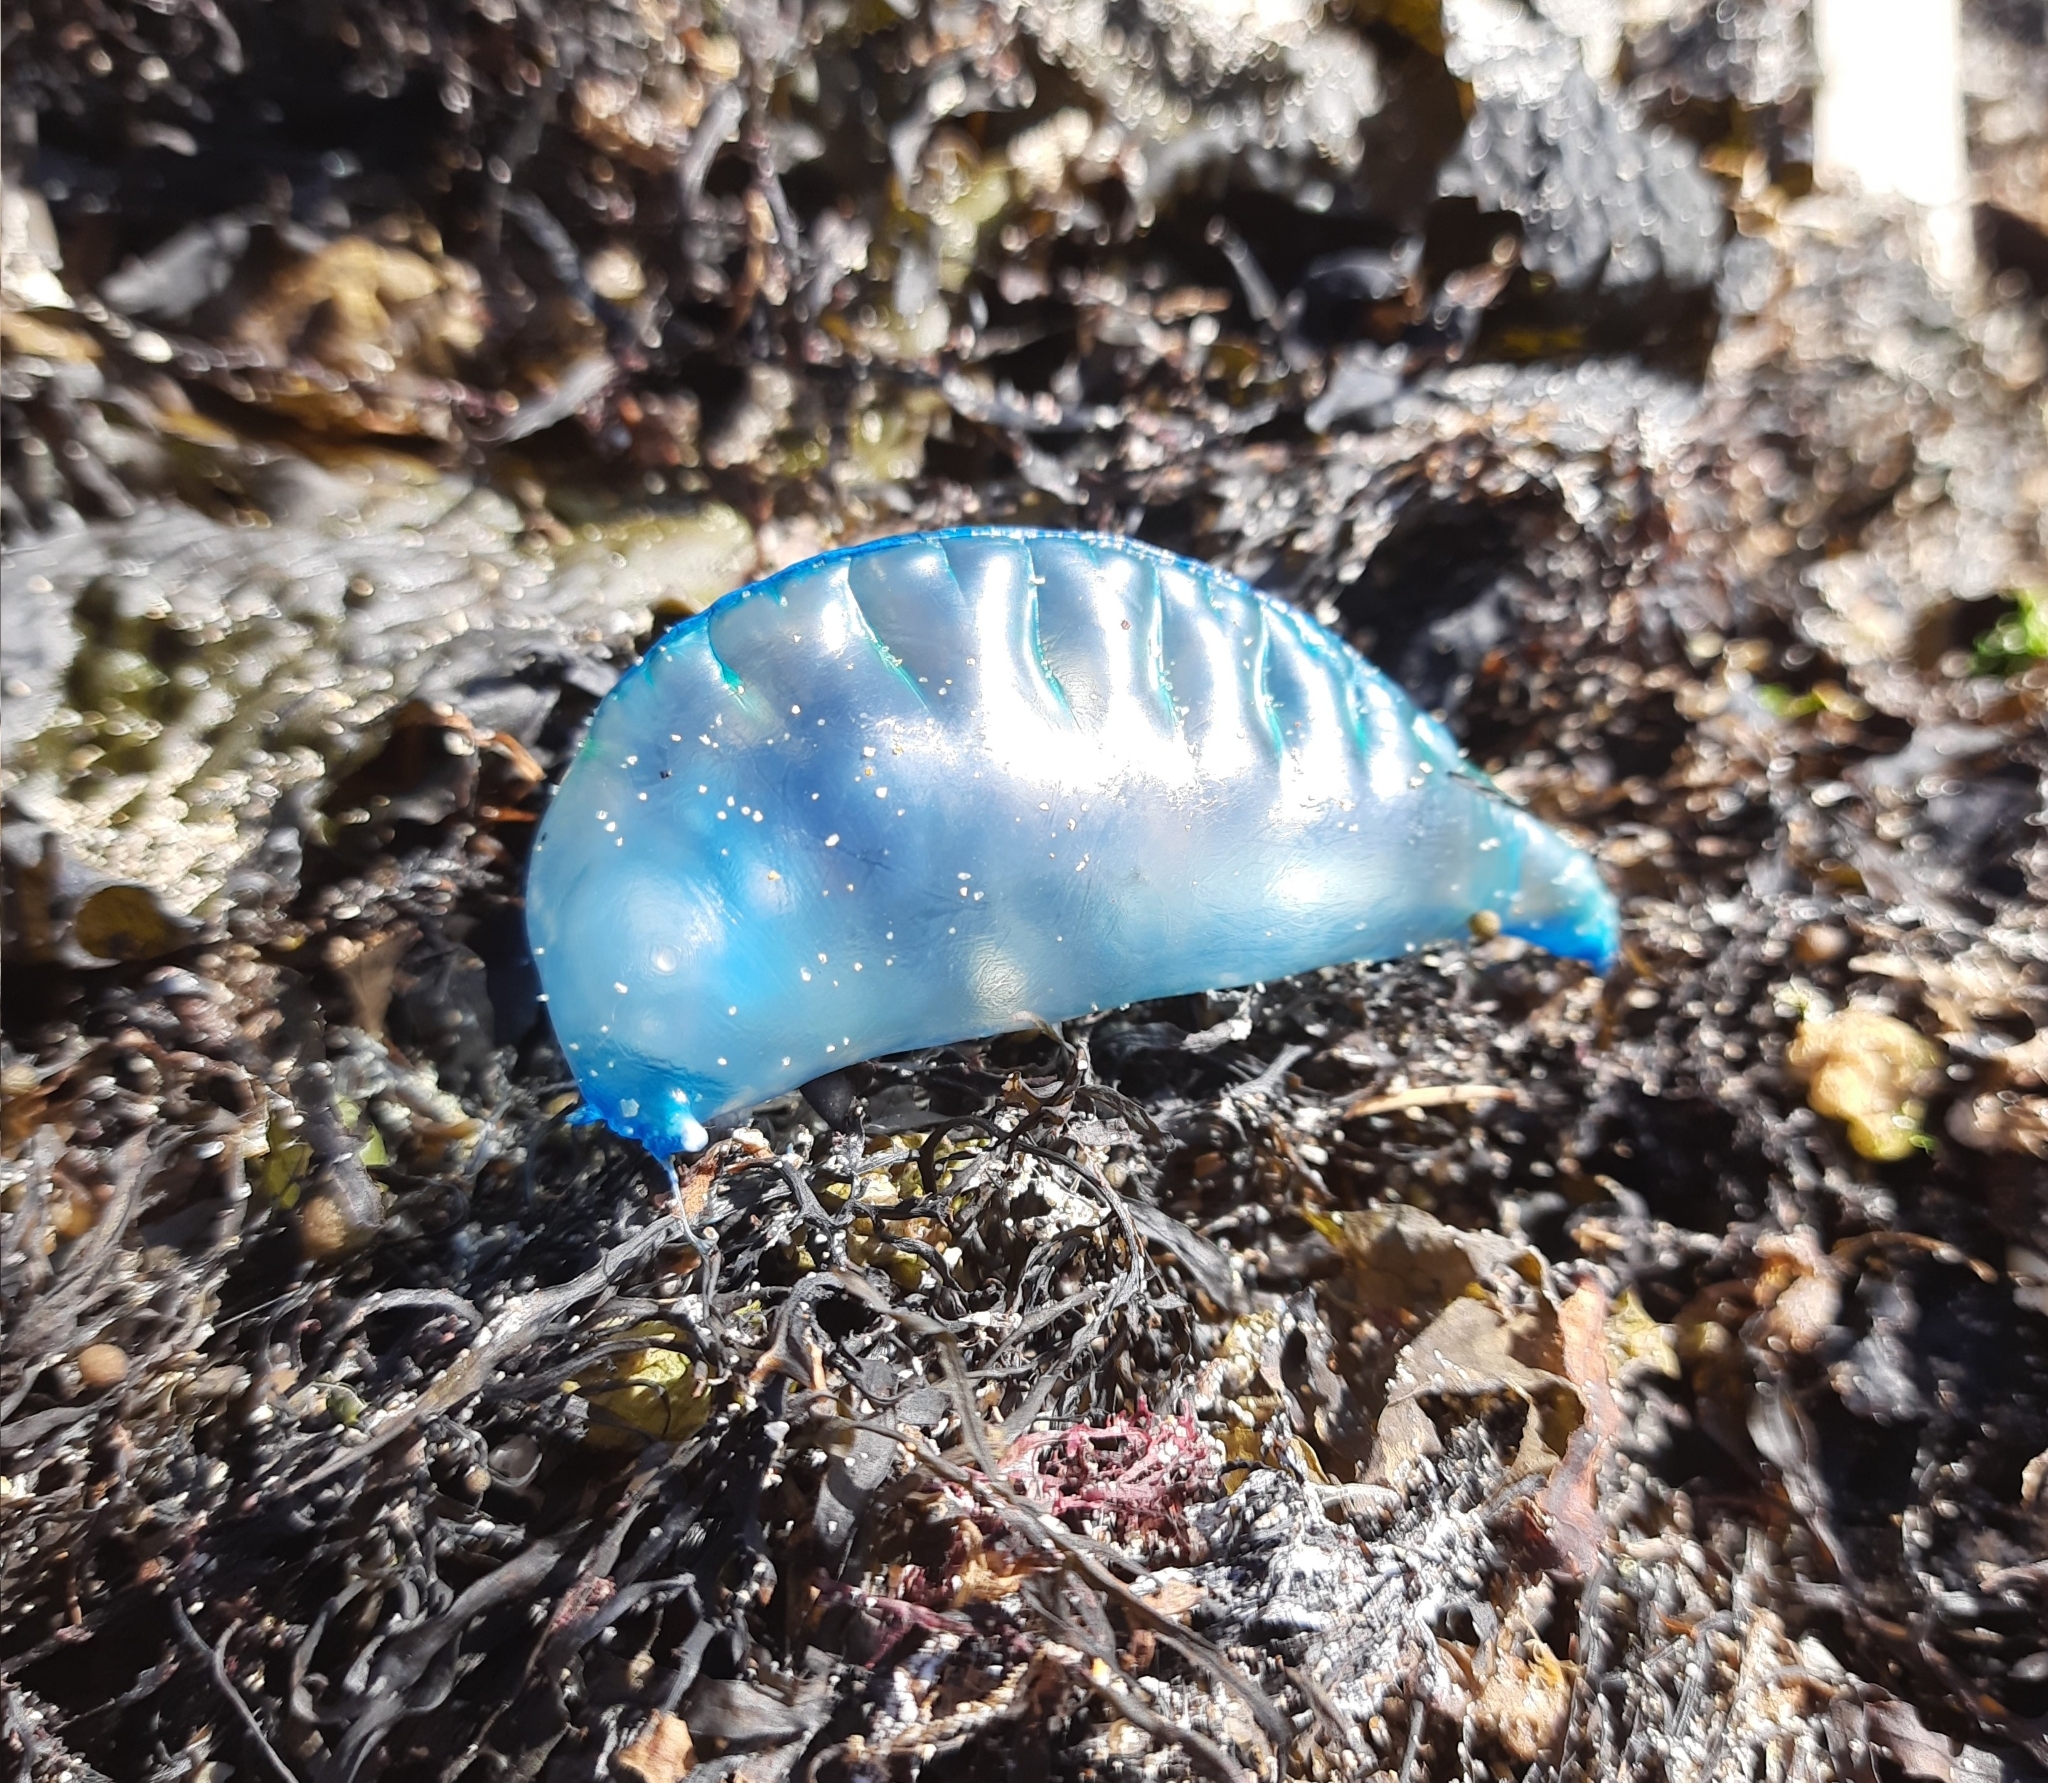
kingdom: Animalia
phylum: Cnidaria
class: Hydrozoa
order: Siphonophorae
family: Physaliidae
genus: Physalia
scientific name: Physalia physalis
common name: Portuguese man-of-war
